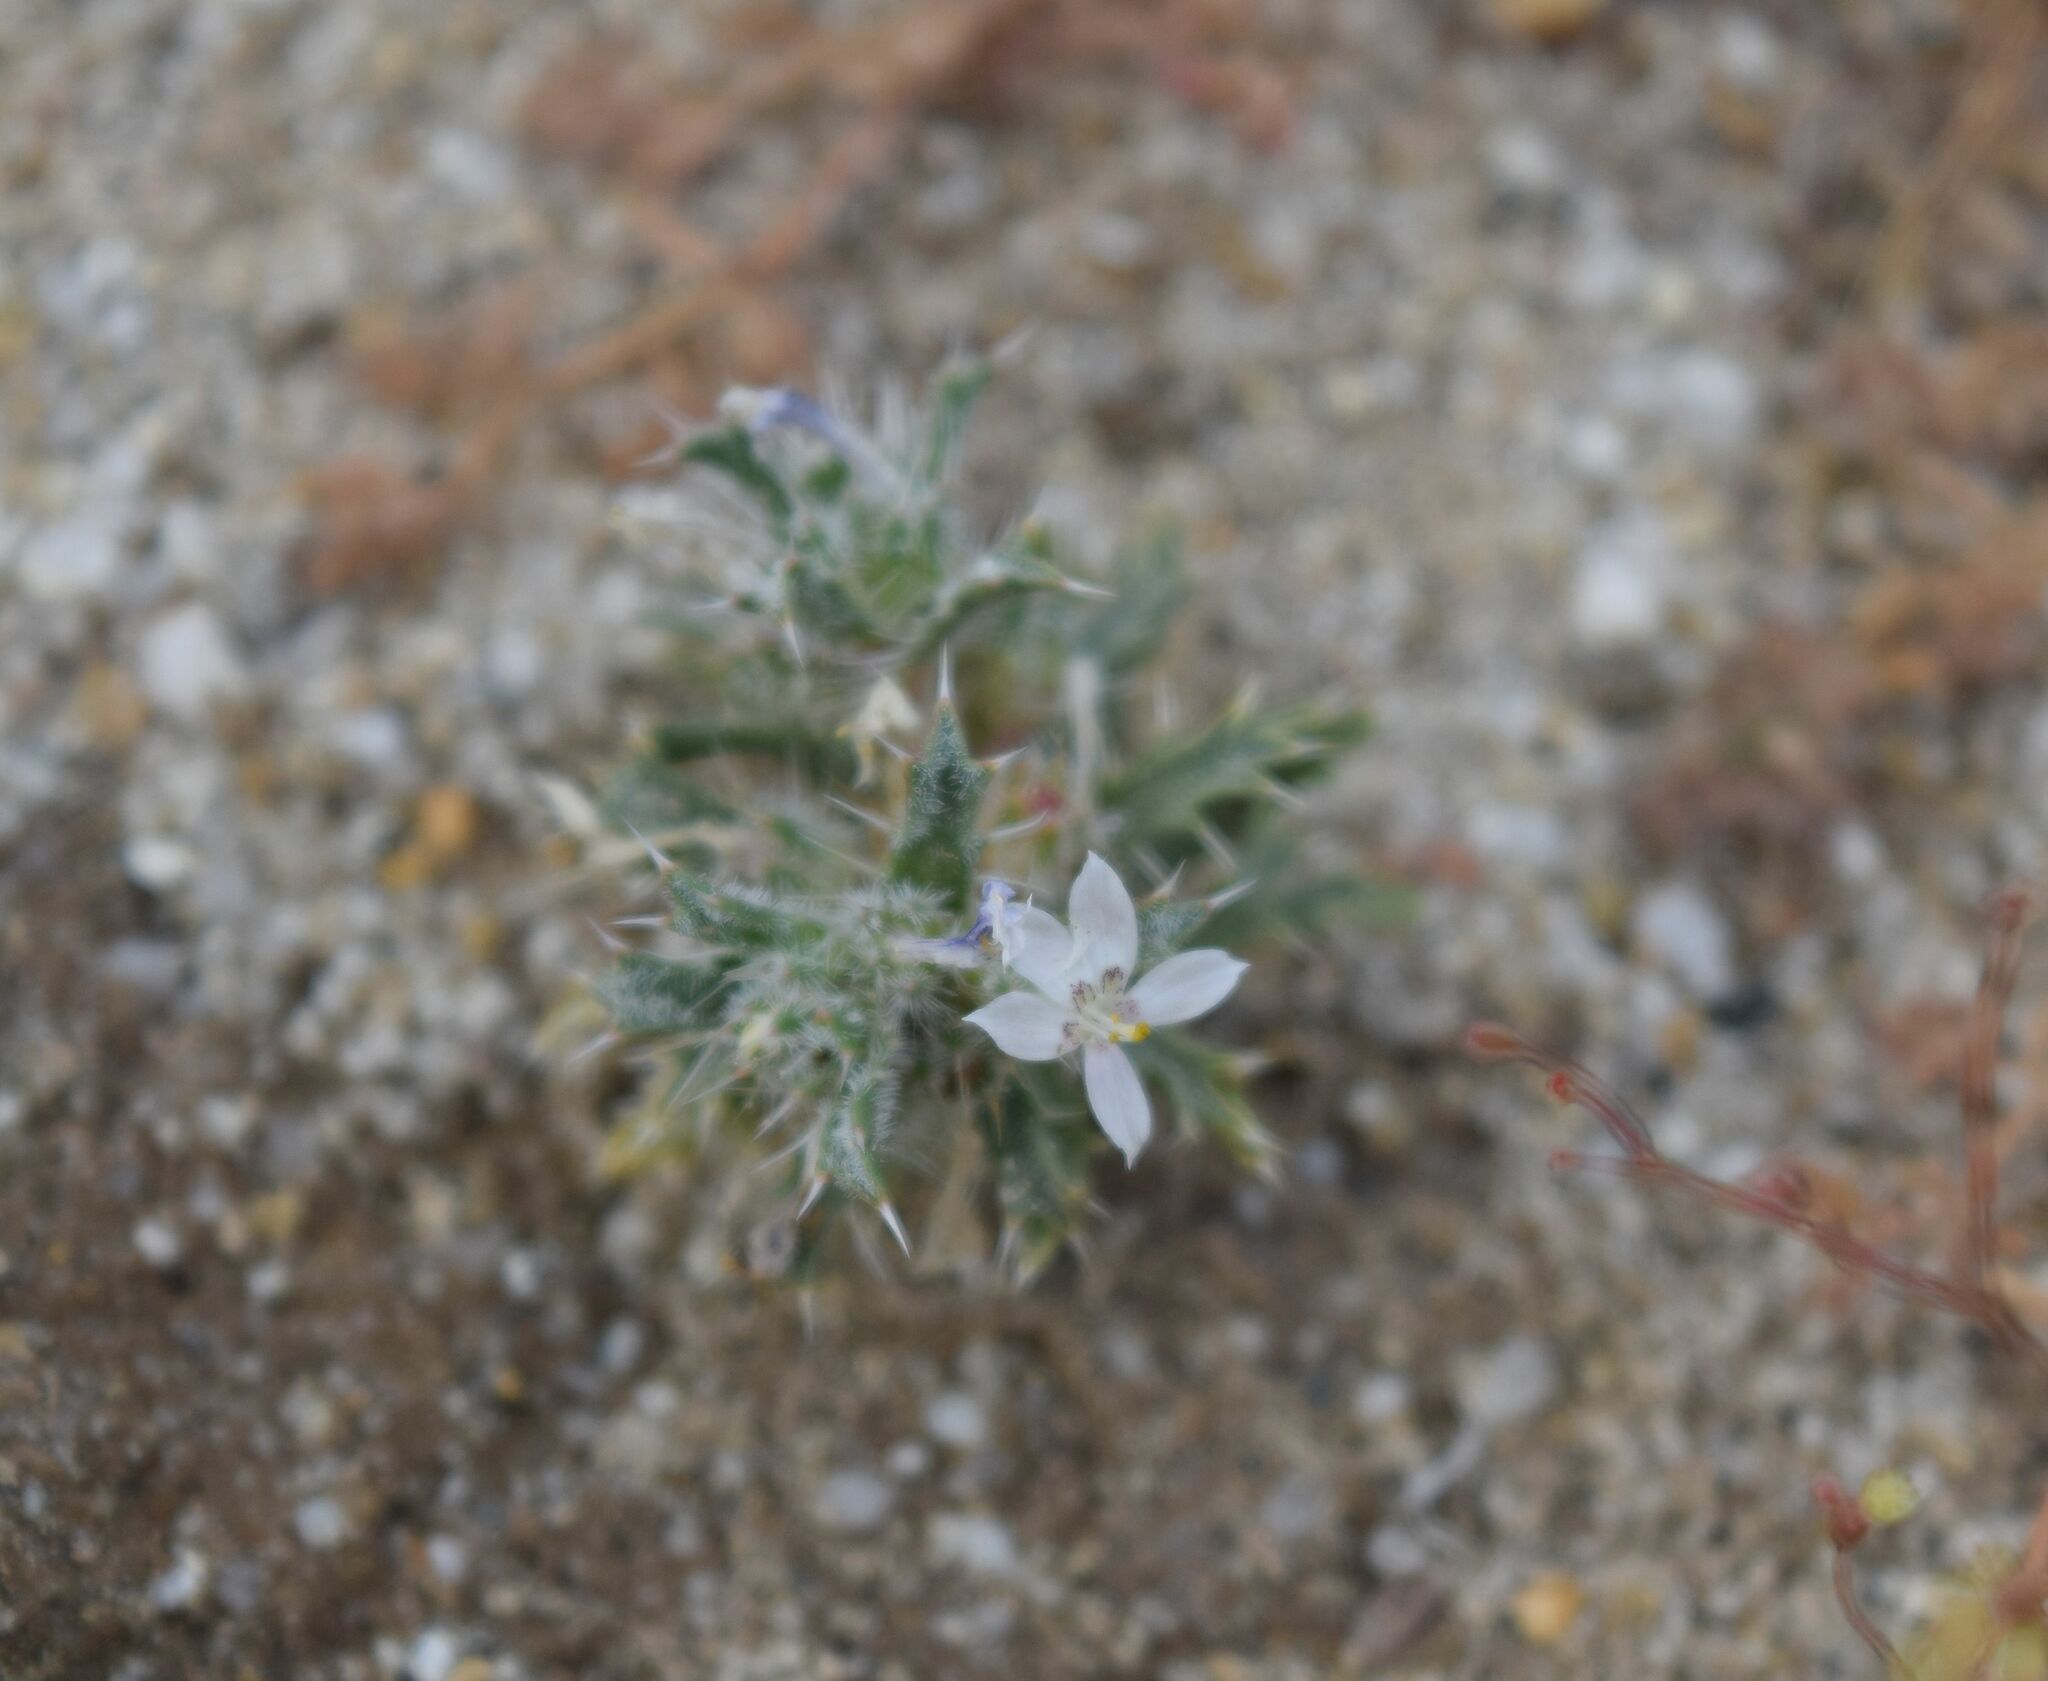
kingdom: Plantae
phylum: Tracheophyta
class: Magnoliopsida
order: Ericales
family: Polemoniaceae
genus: Loeseliastrum
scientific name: Loeseliastrum schottii
